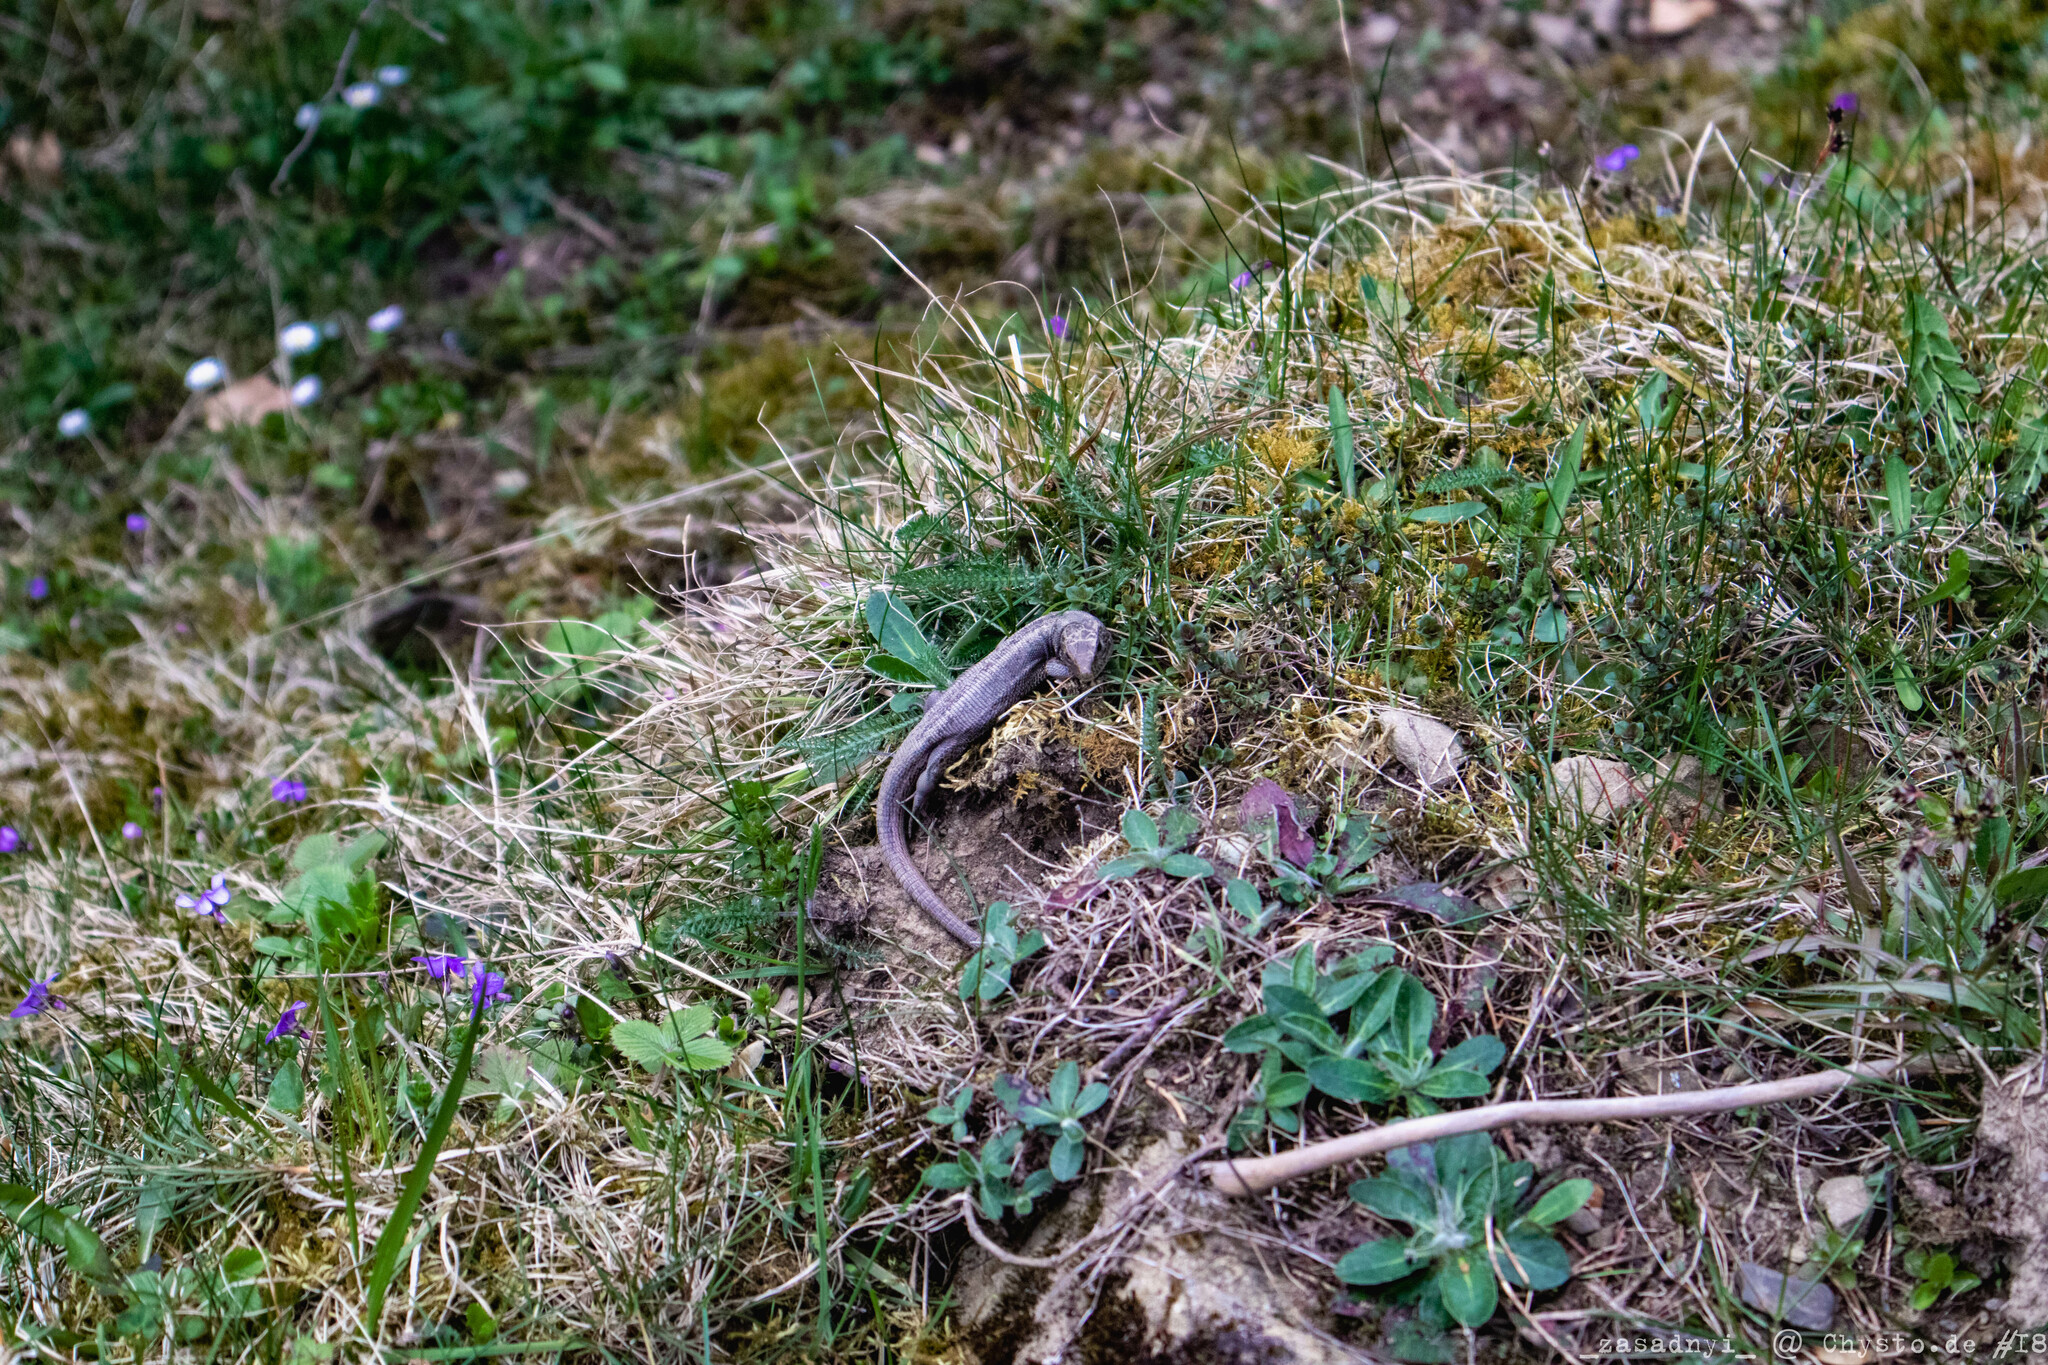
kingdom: Animalia
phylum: Chordata
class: Squamata
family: Lacertidae
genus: Lacerta
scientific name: Lacerta agilis
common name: Sand lizard
